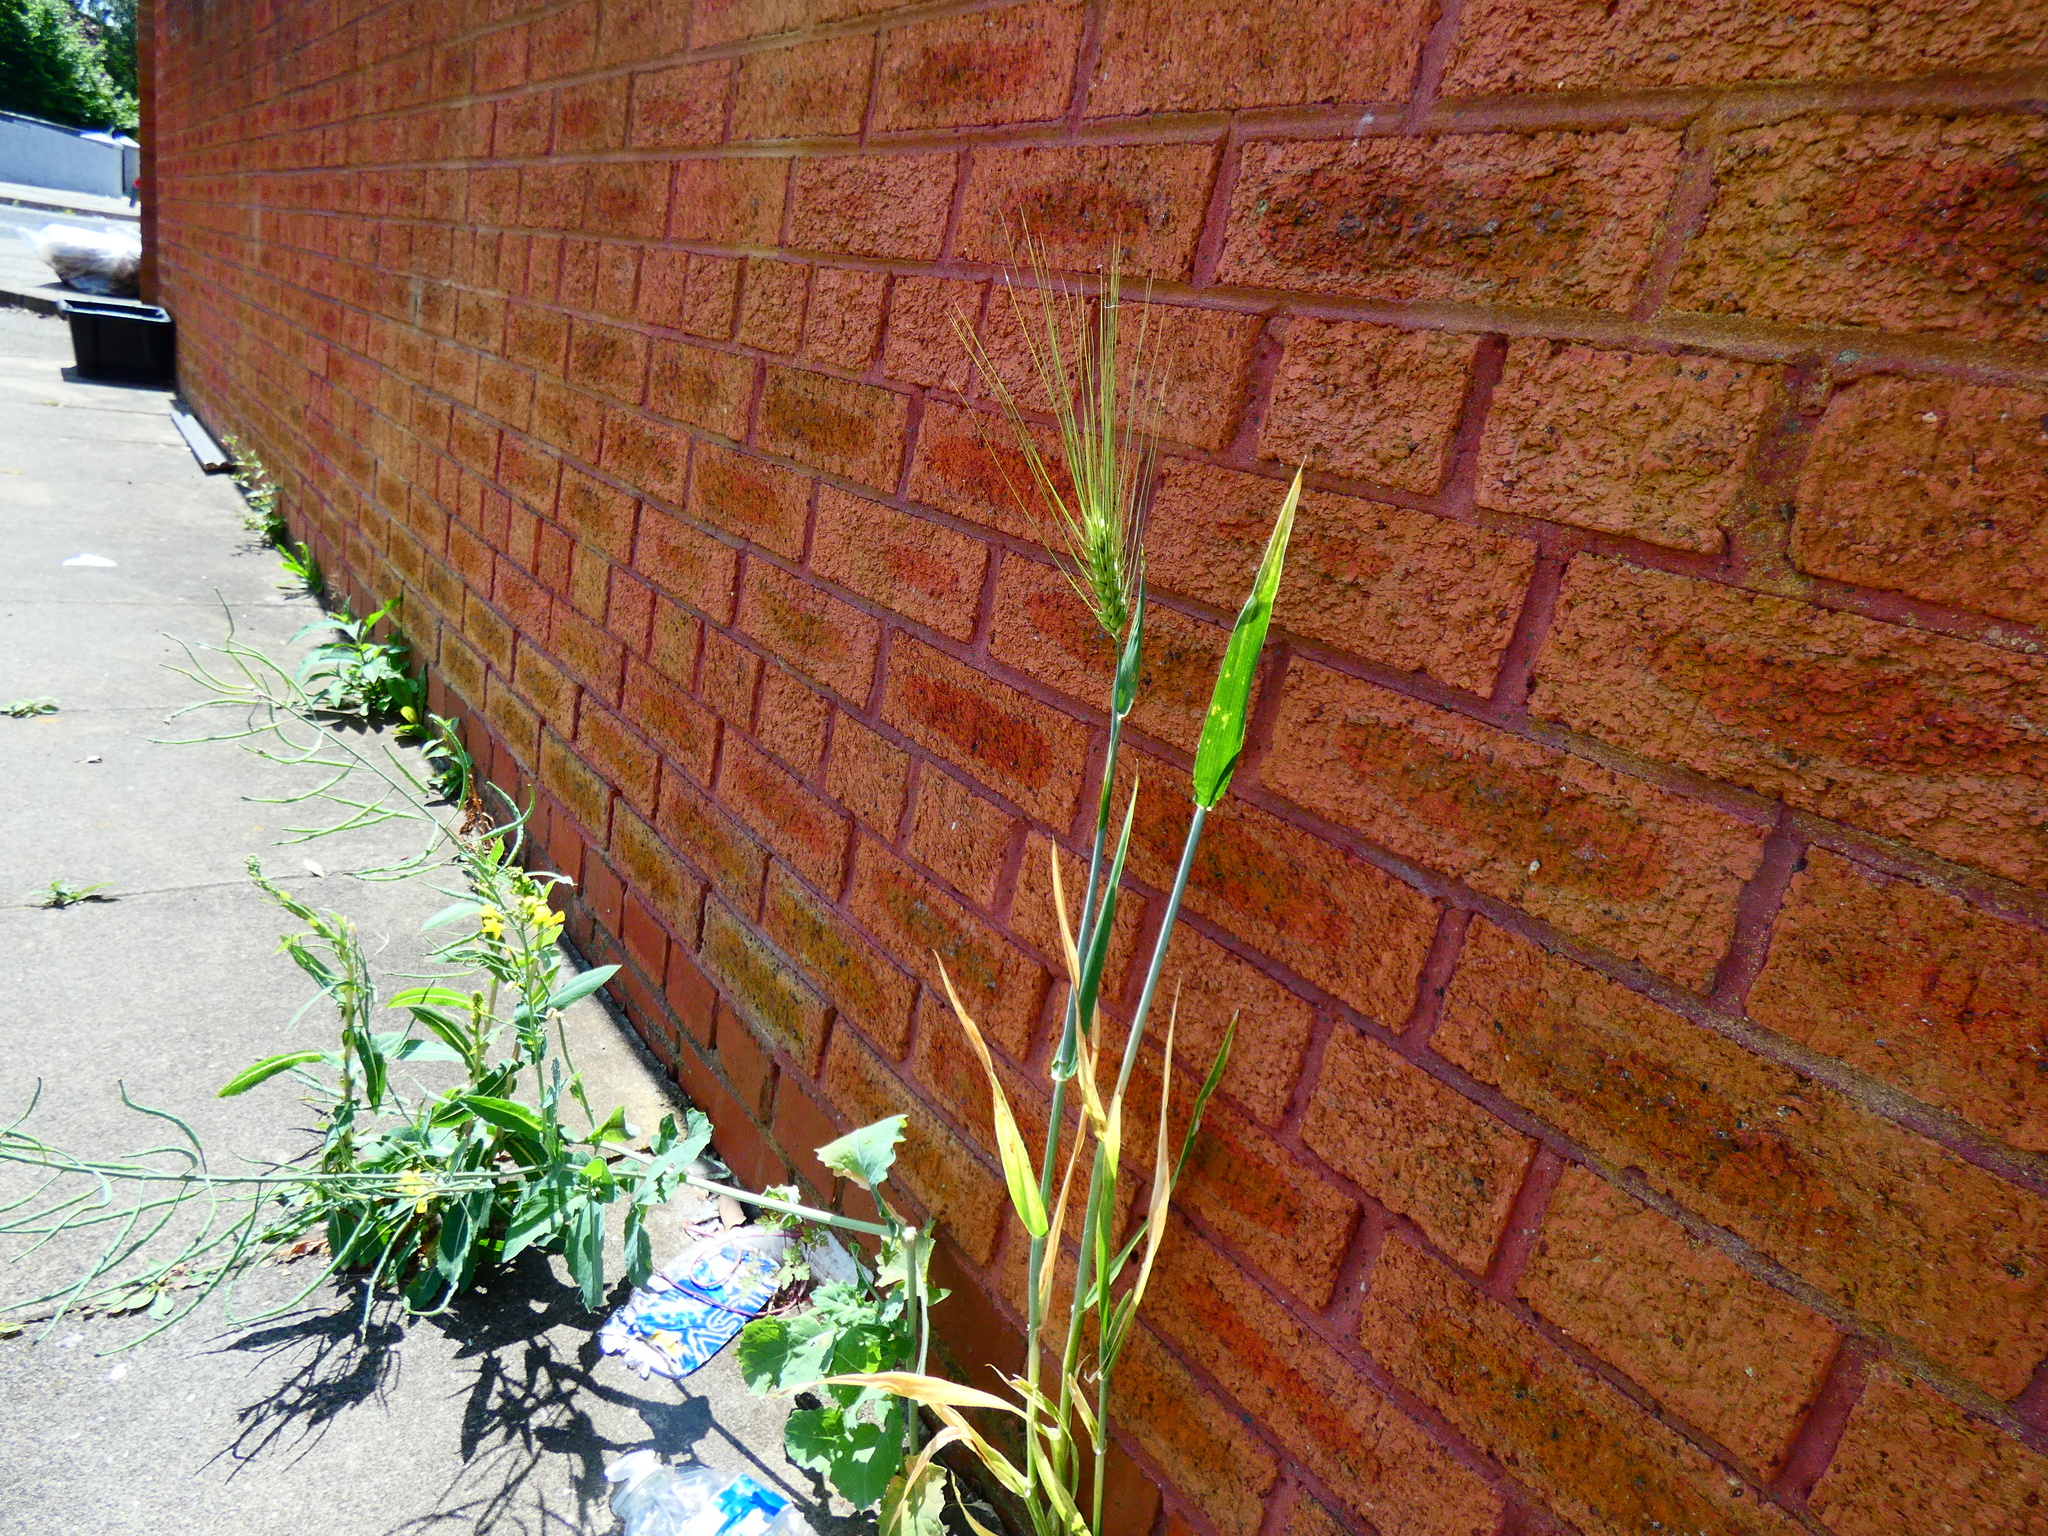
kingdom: Plantae
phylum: Tracheophyta
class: Liliopsida
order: Poales
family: Poaceae
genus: Hordeum
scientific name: Hordeum vulgare
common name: Common barley
